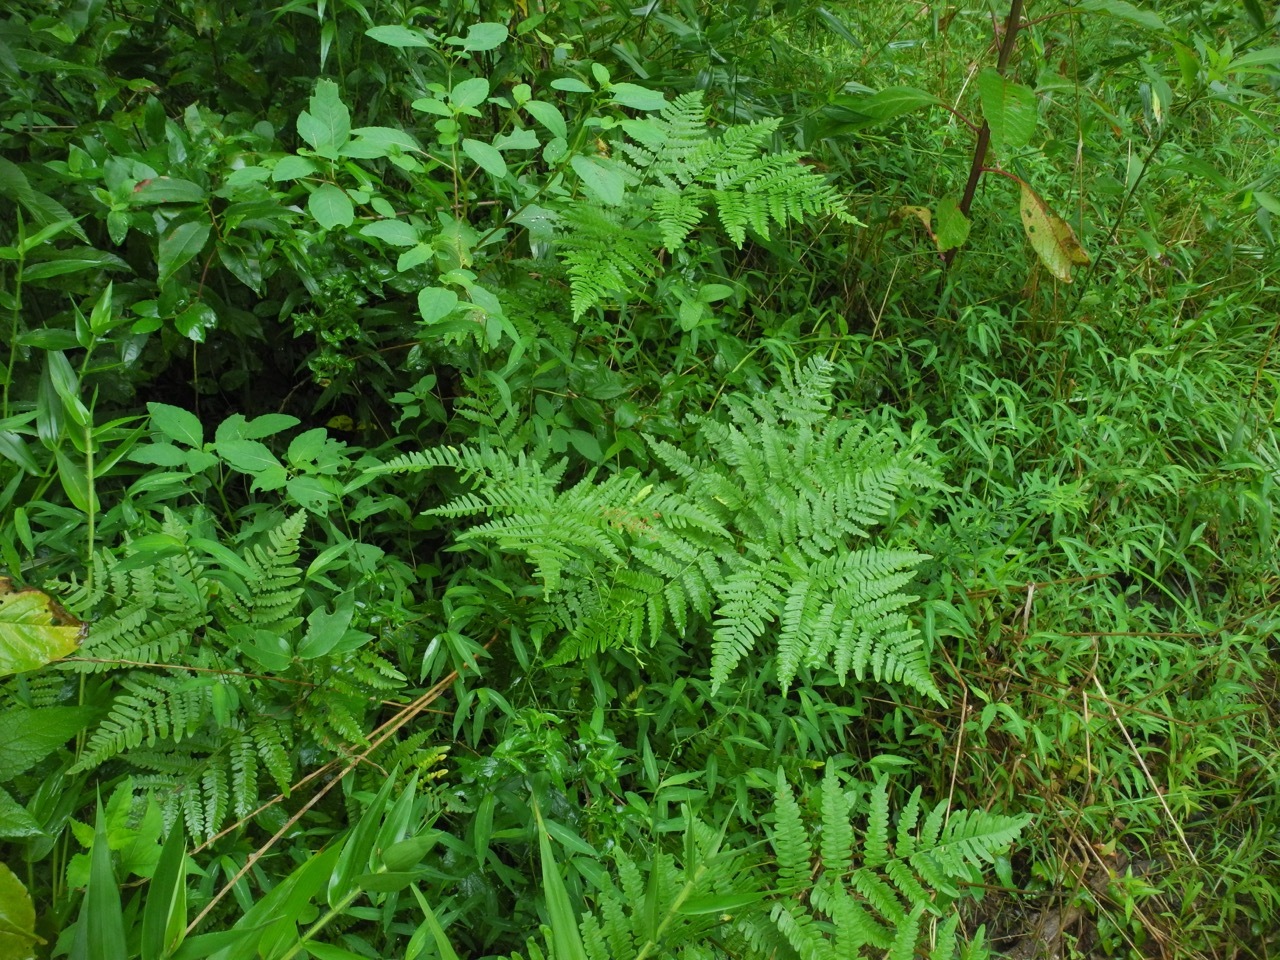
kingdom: Plantae
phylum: Tracheophyta
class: Polypodiopsida
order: Polypodiales
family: Dennstaedtiaceae
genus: Pteridium
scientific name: Pteridium aquilinum
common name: Bracken
